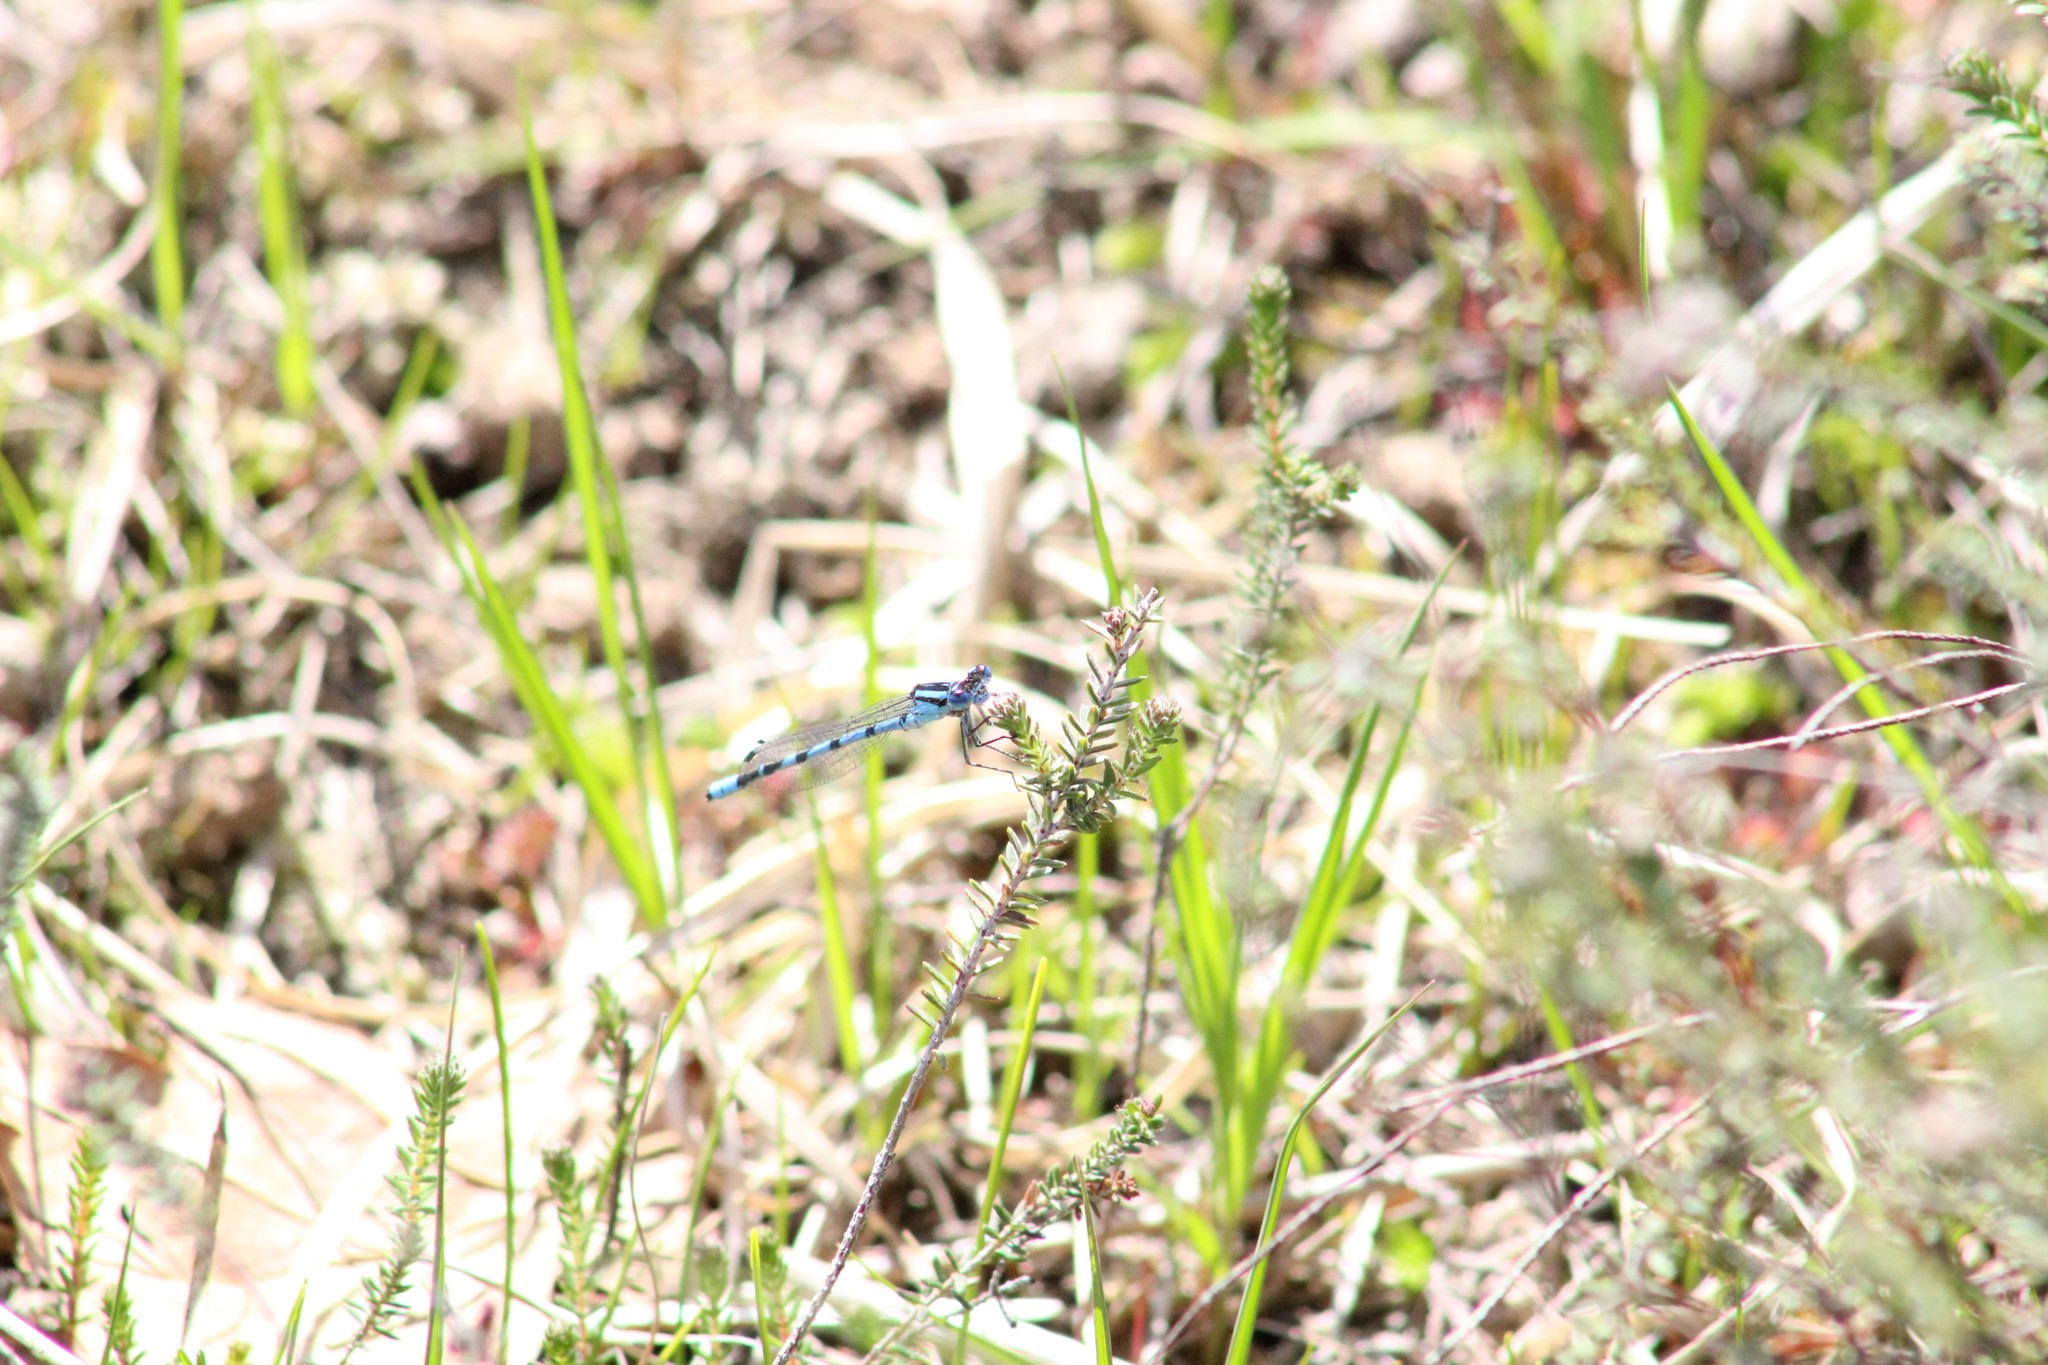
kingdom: Animalia
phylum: Arthropoda
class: Insecta
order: Odonata
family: Coenagrionidae
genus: Enallagma
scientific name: Enallagma cyathigerum
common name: Common blue damselfly
